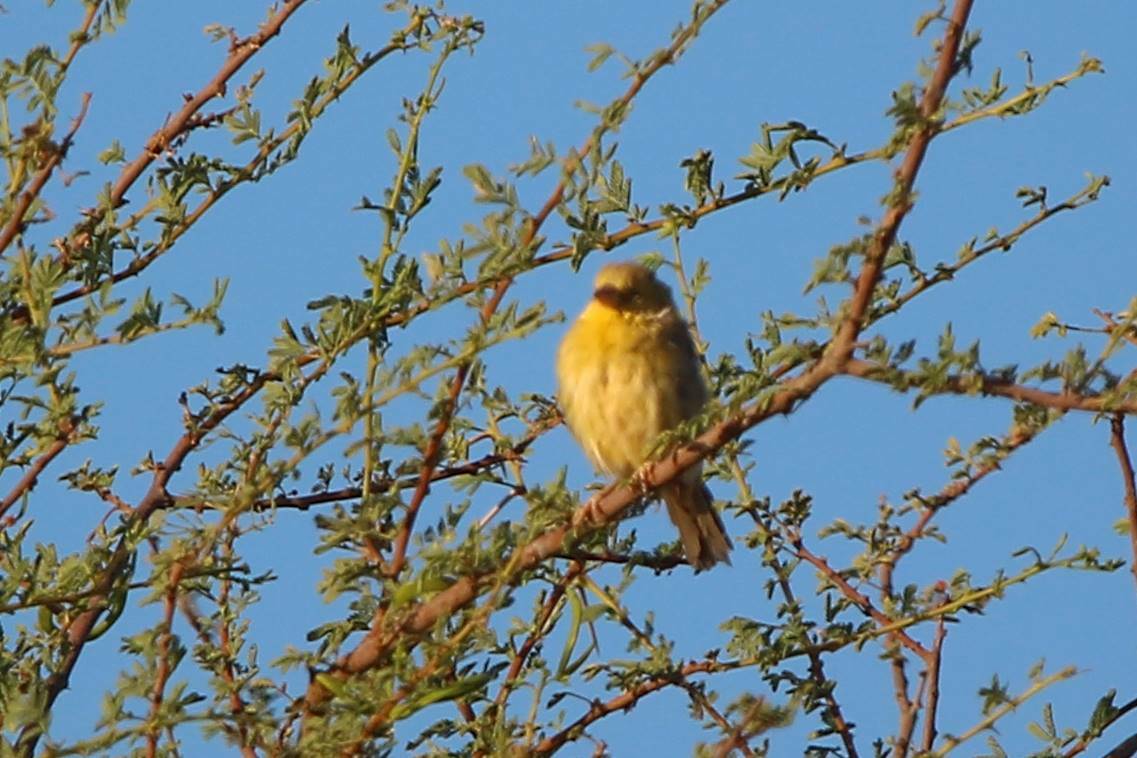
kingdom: Animalia
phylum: Chordata
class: Aves
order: Passeriformes
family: Passeridae
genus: Passer
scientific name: Passer luteus
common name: Sudan golden sparrow
